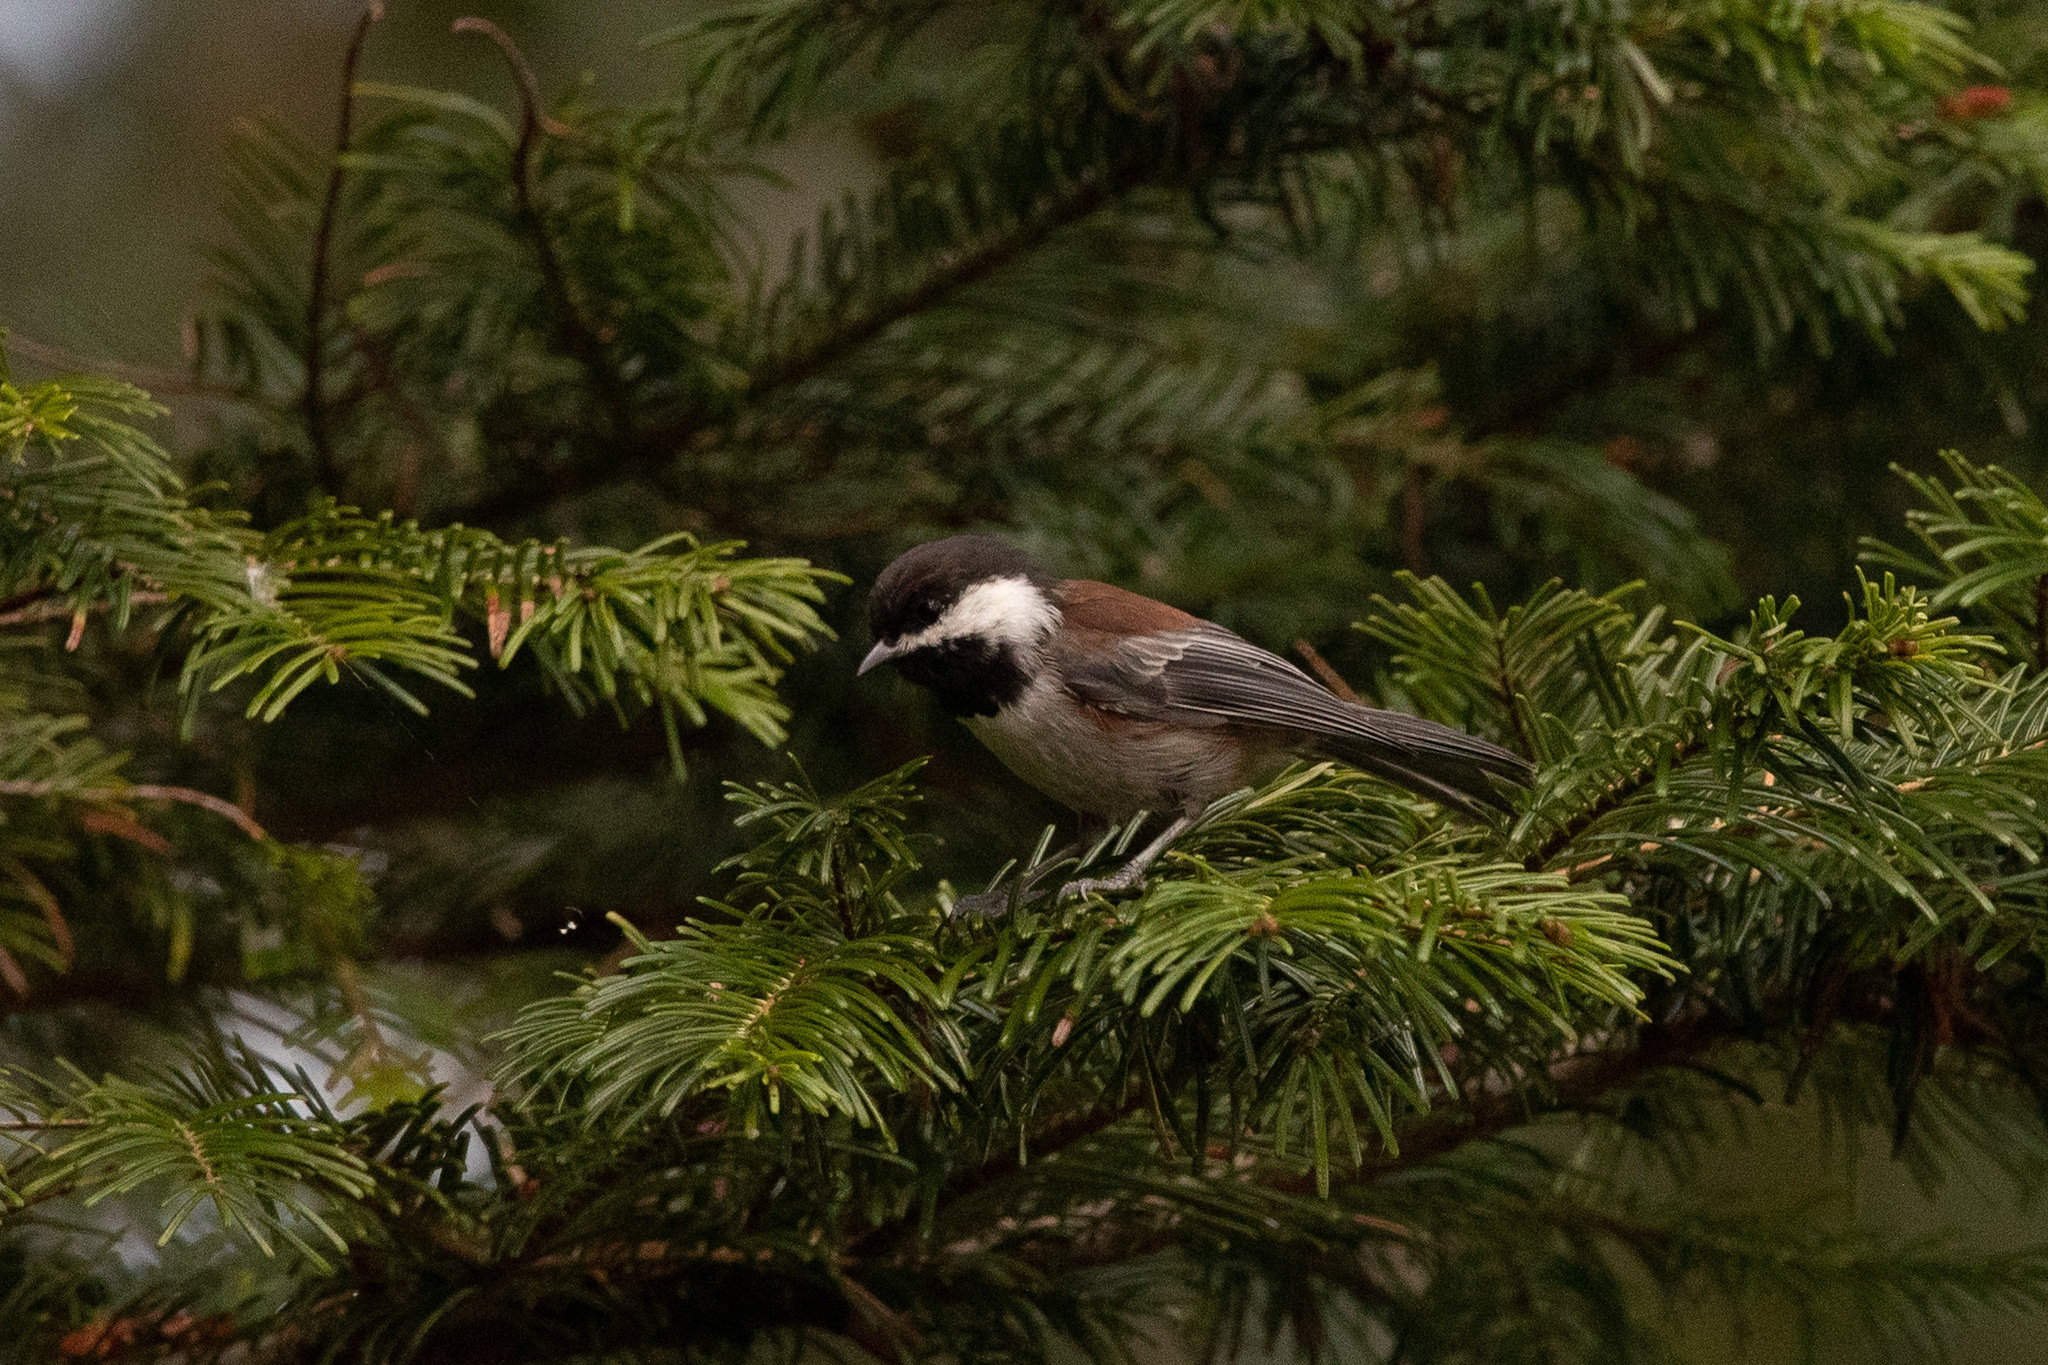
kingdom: Animalia
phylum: Chordata
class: Aves
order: Passeriformes
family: Paridae
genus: Poecile
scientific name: Poecile rufescens
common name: Chestnut-backed chickadee
